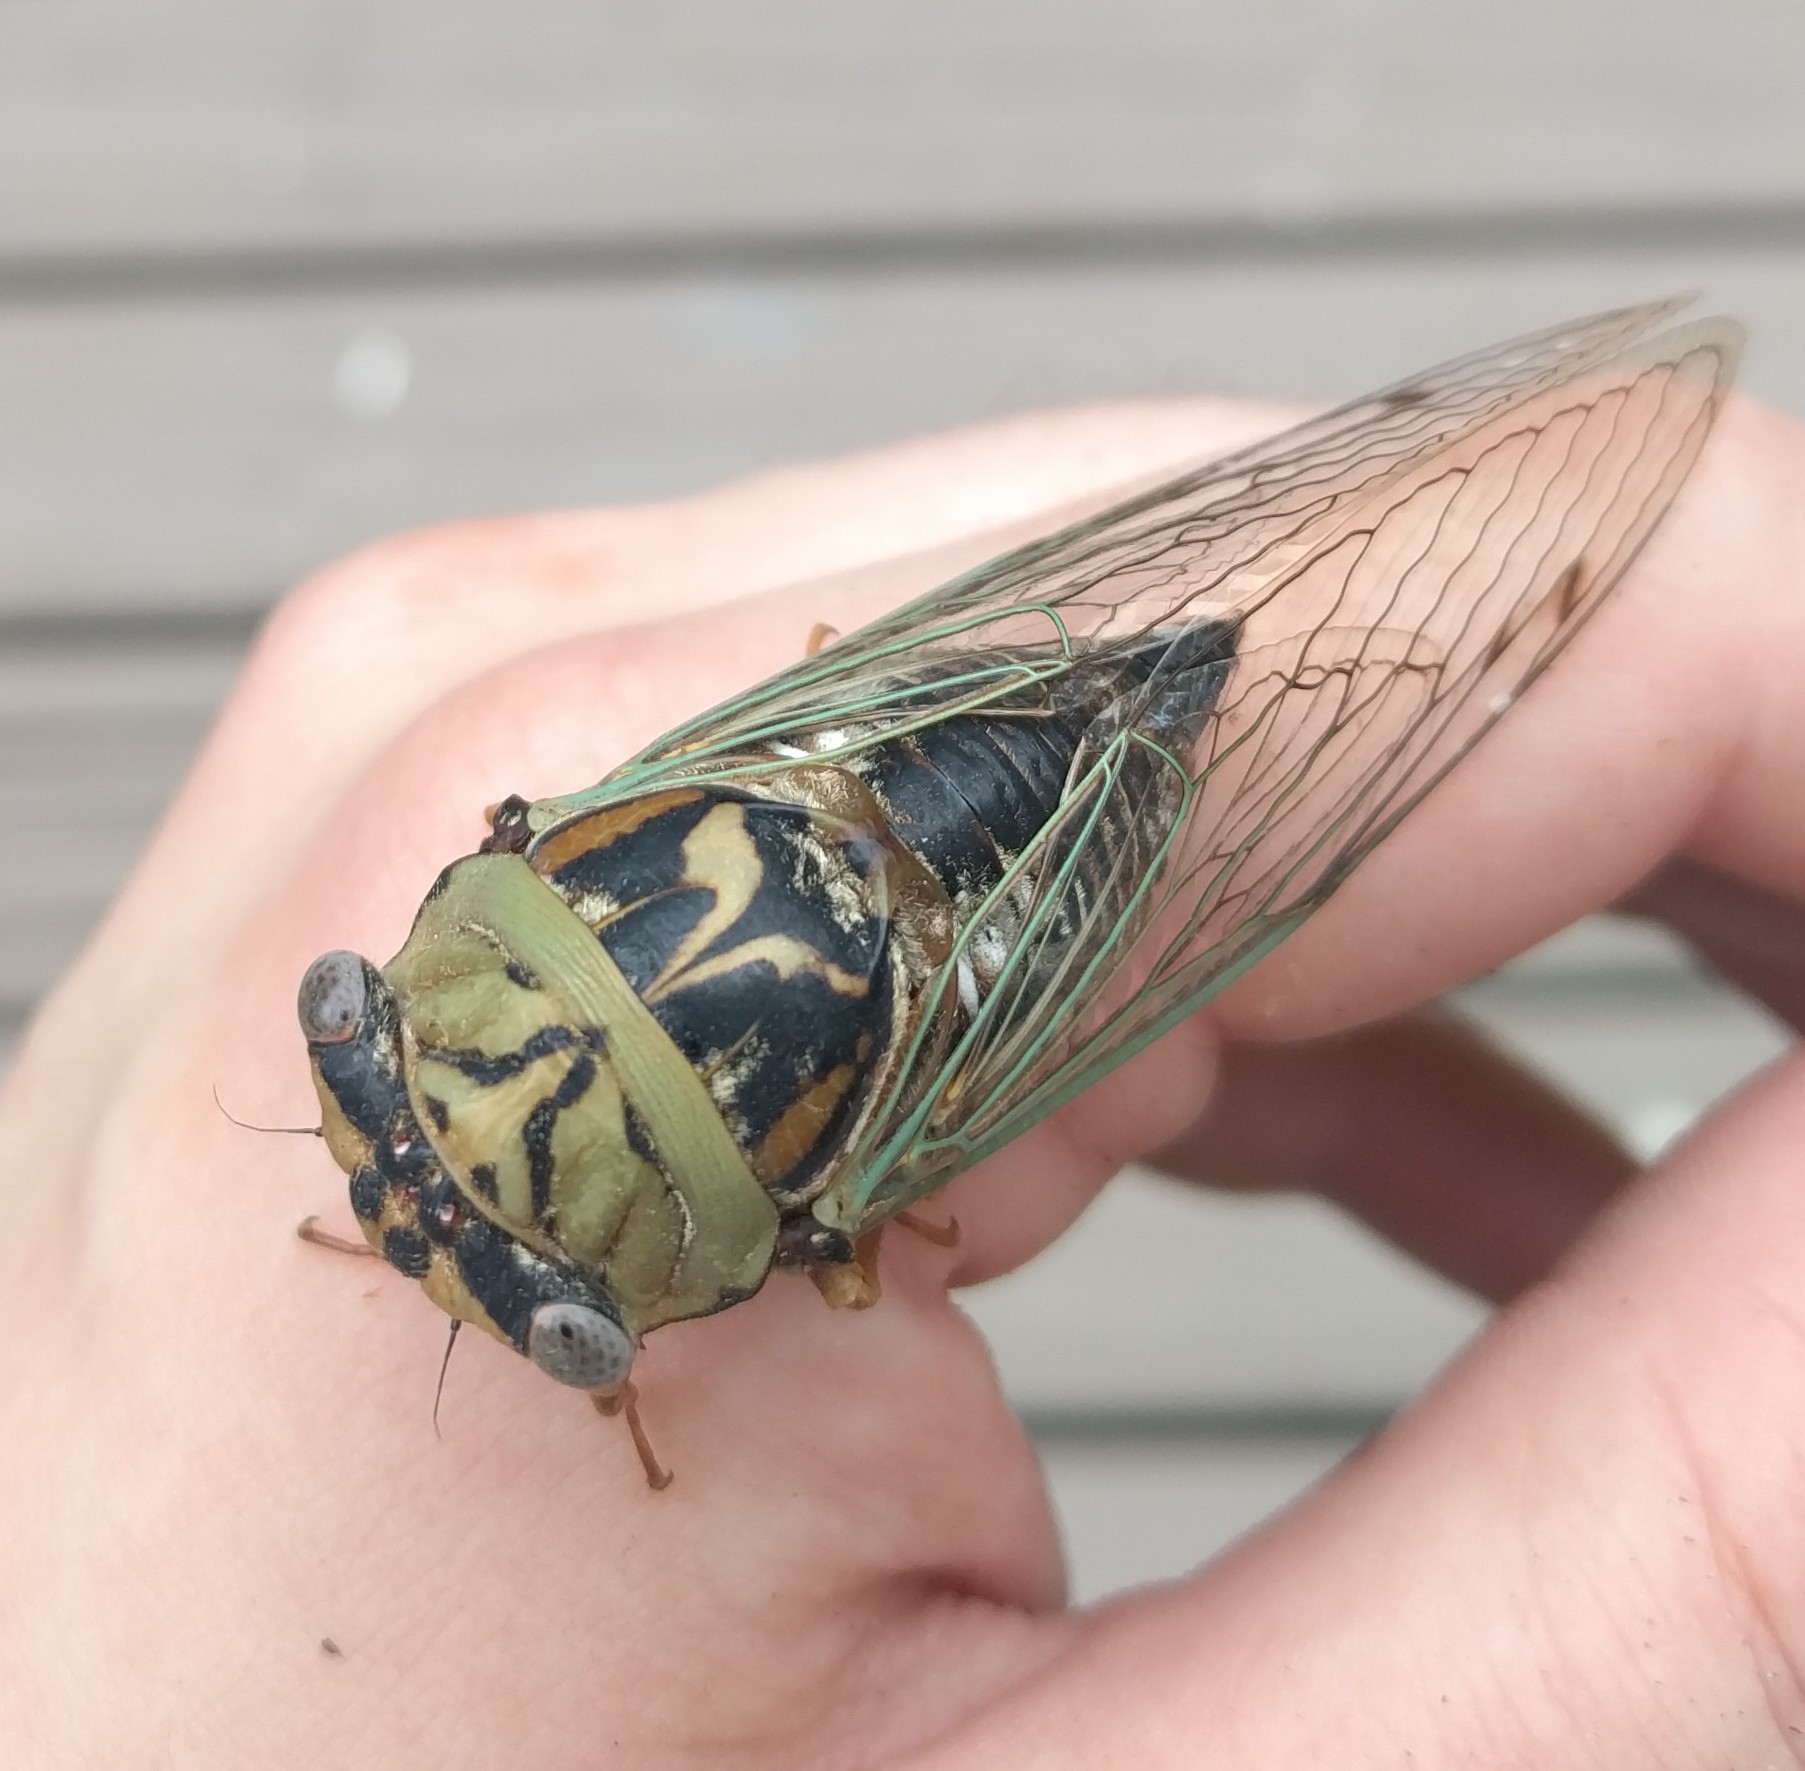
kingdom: Animalia
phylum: Arthropoda
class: Insecta
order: Hemiptera
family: Cicadidae
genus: Megatibicen
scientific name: Megatibicen resh
